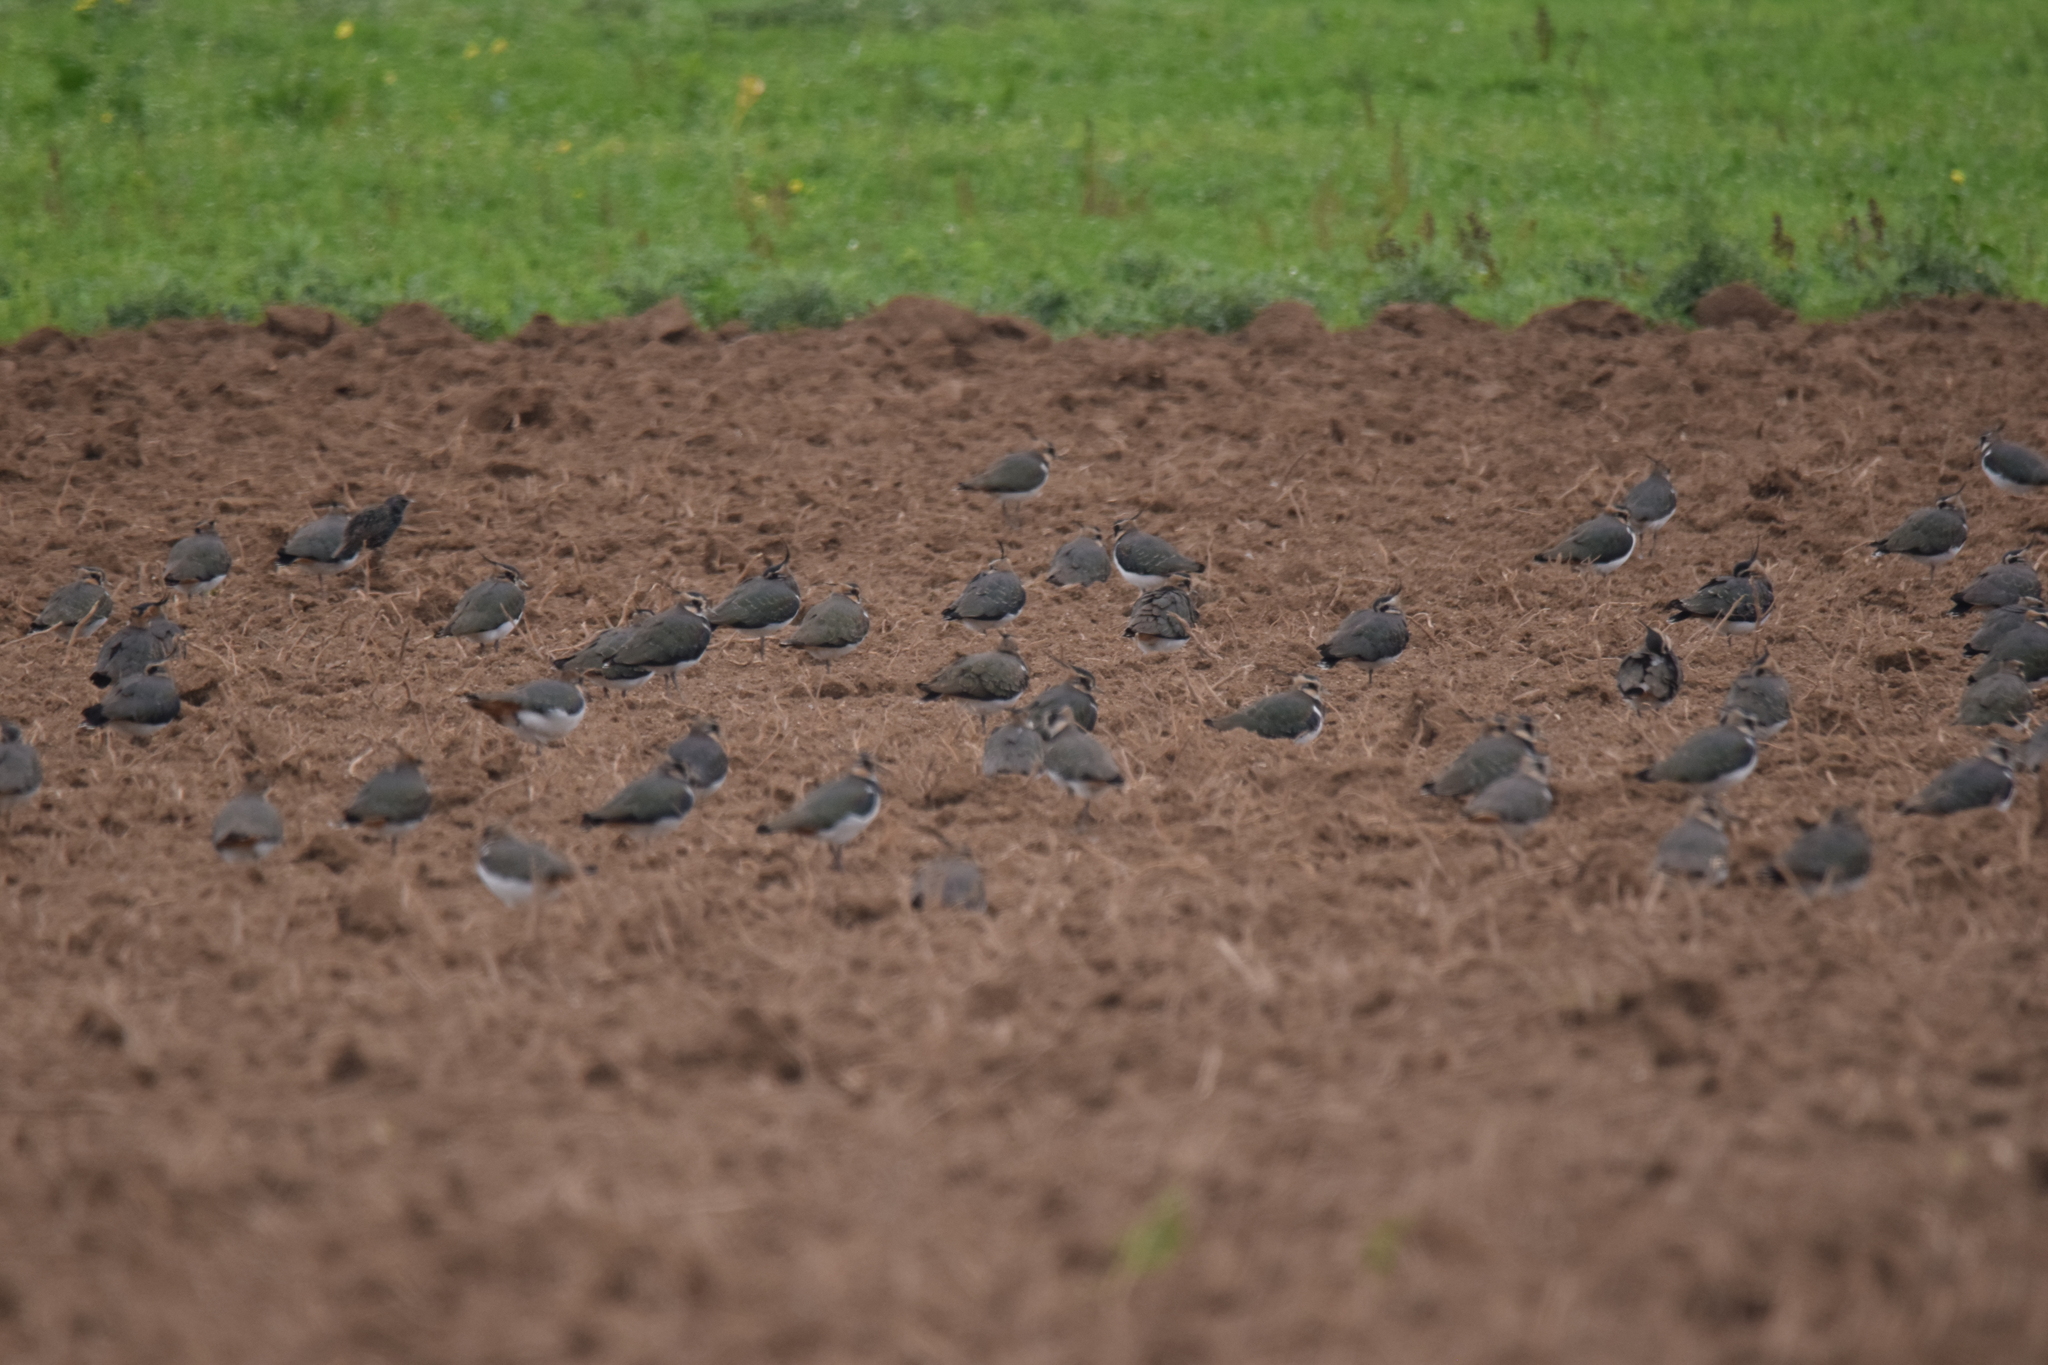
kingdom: Animalia
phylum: Chordata
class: Aves
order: Charadriiformes
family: Charadriidae
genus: Vanellus
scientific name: Vanellus vanellus
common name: Northern lapwing
